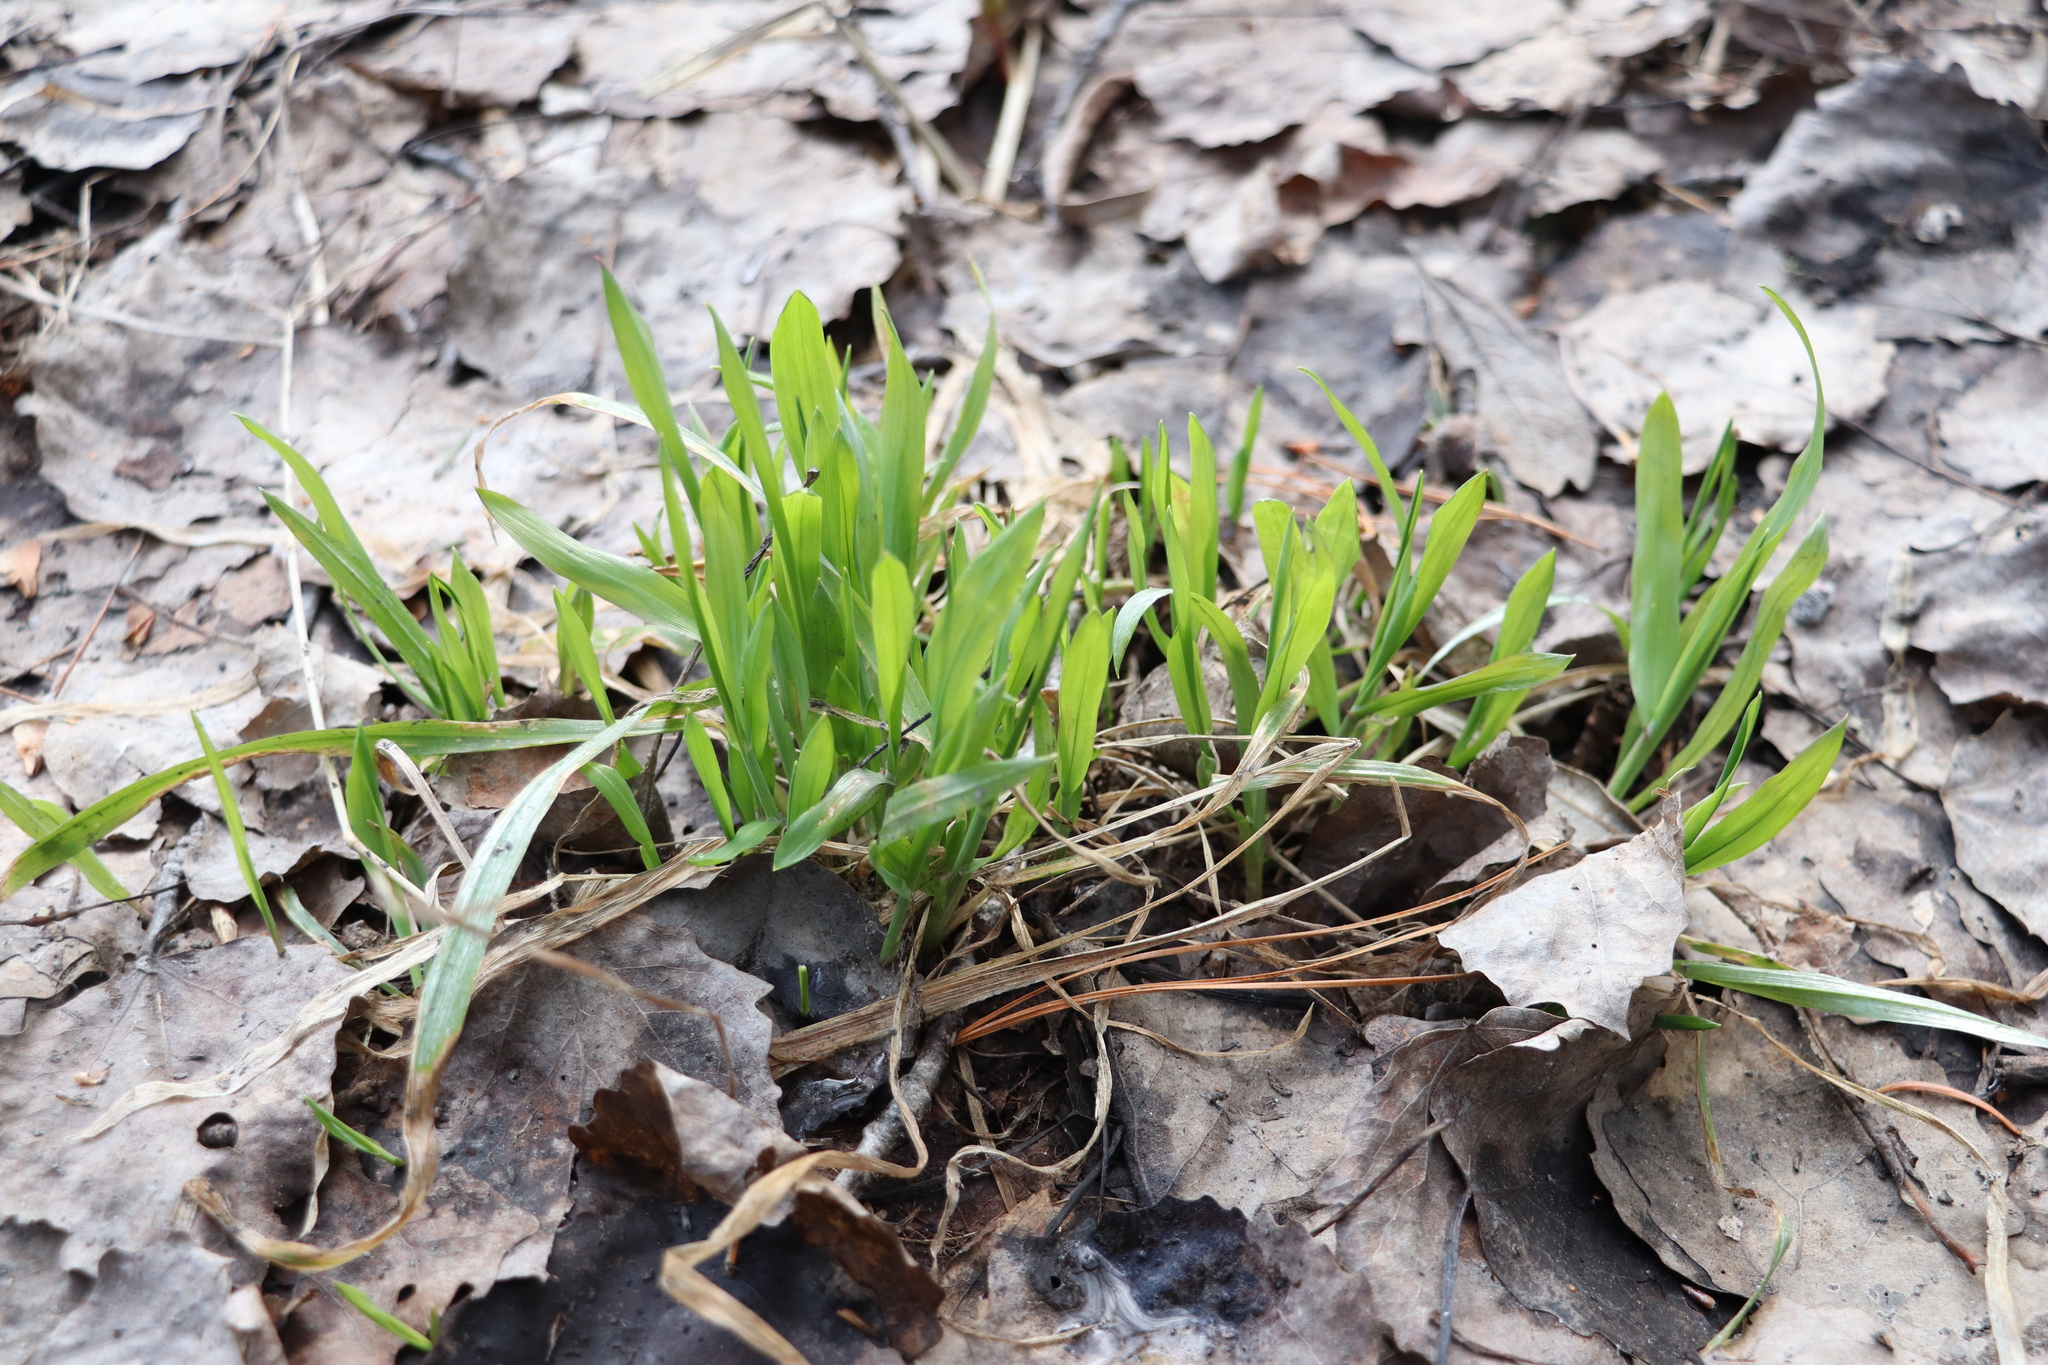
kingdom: Plantae
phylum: Tracheophyta
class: Liliopsida
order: Poales
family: Poaceae
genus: Milium
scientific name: Milium effusum
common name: Wood millet
